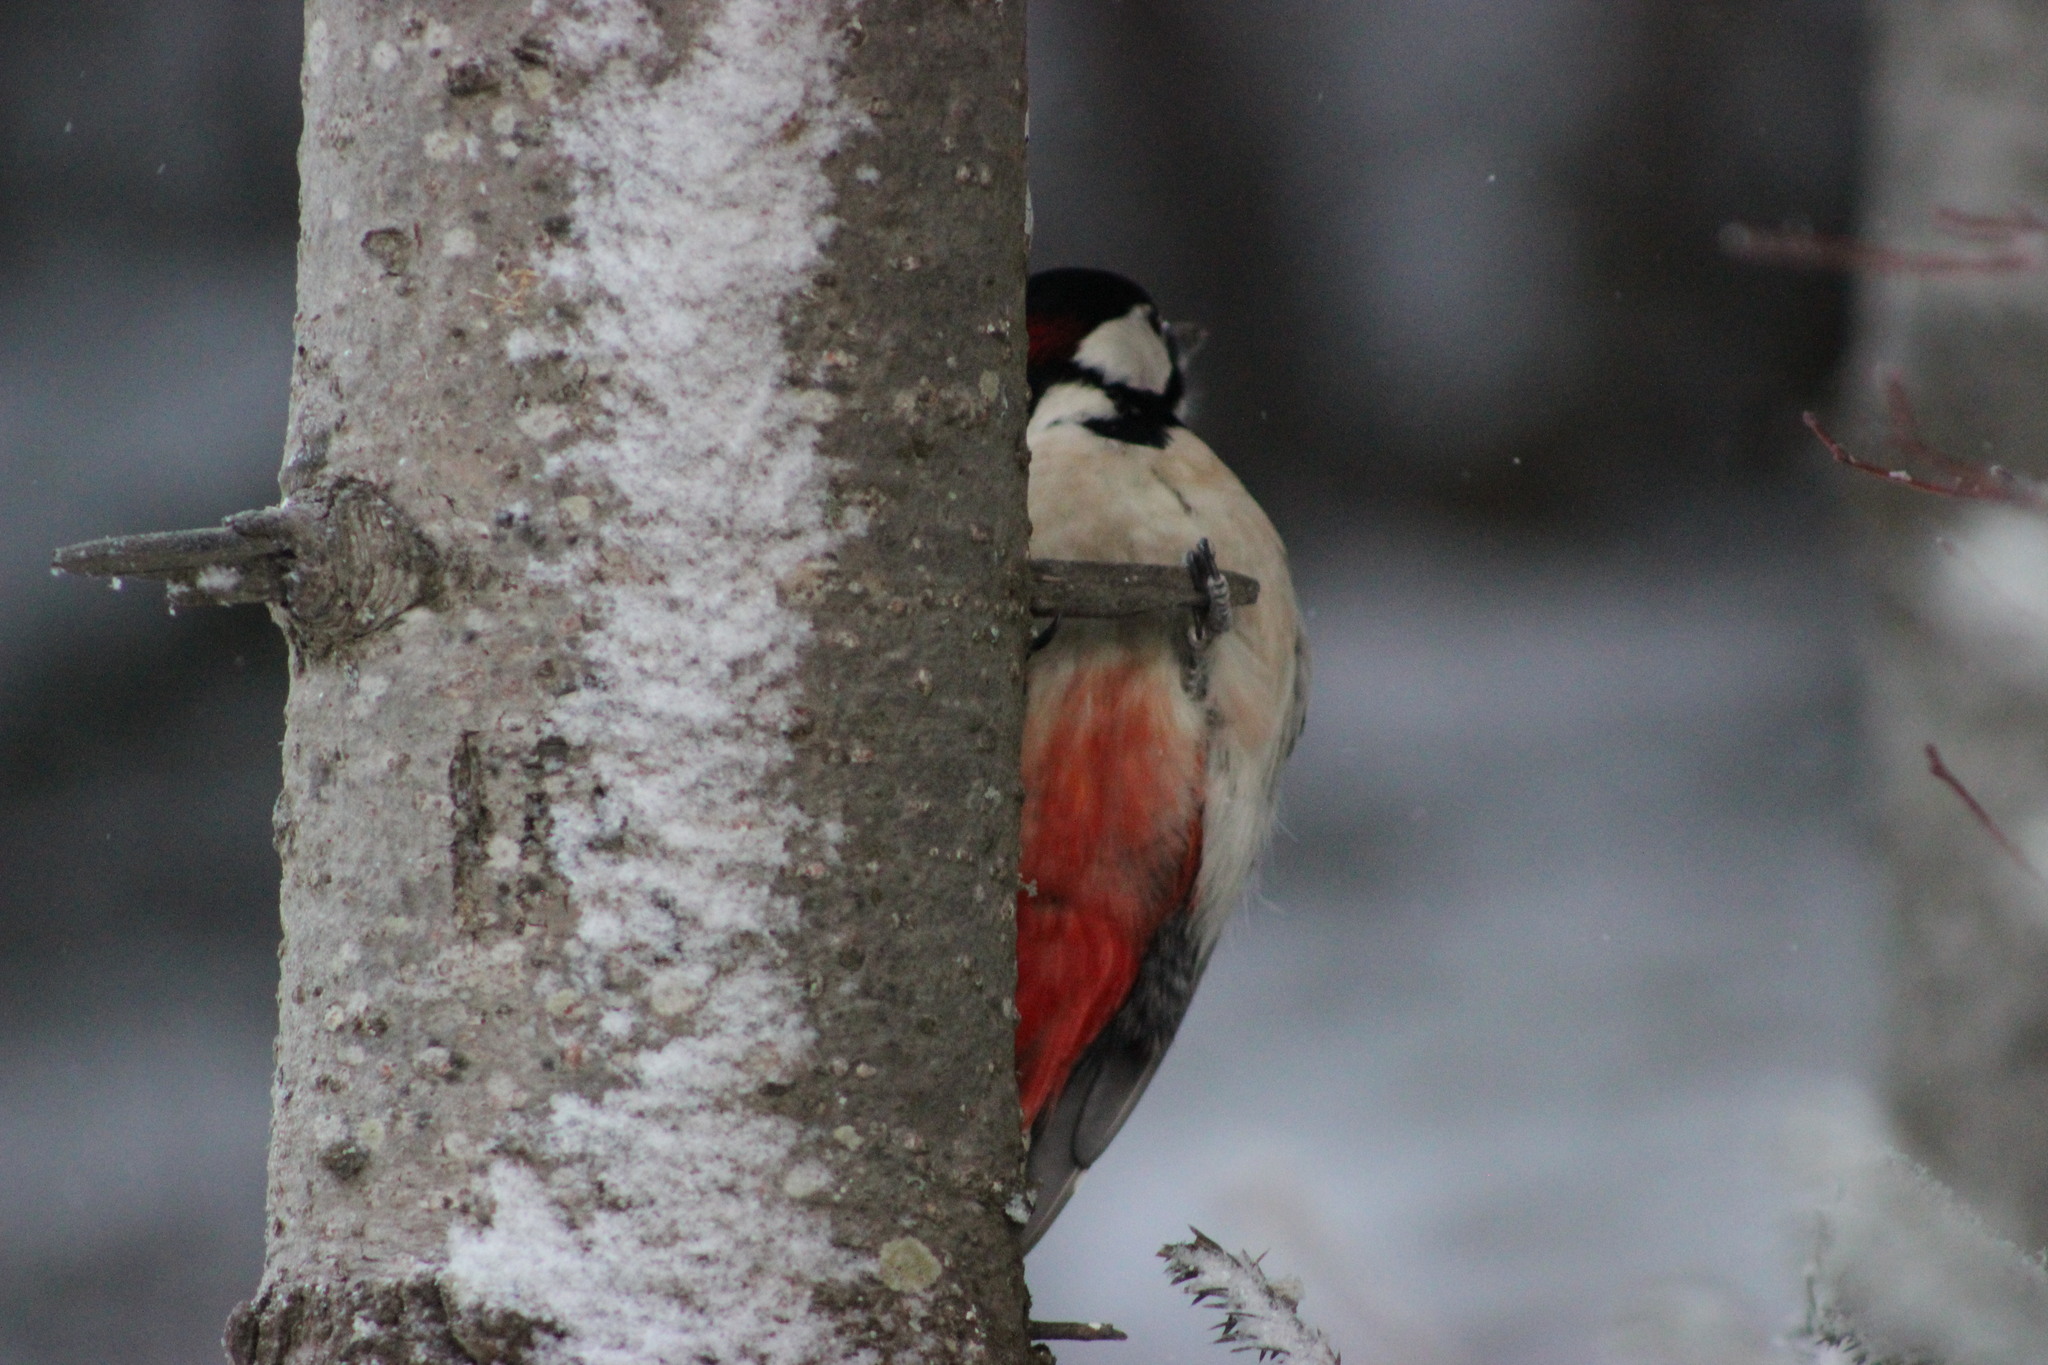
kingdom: Animalia
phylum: Chordata
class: Aves
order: Piciformes
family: Picidae
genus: Dendrocopos
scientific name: Dendrocopos major
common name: Great spotted woodpecker
